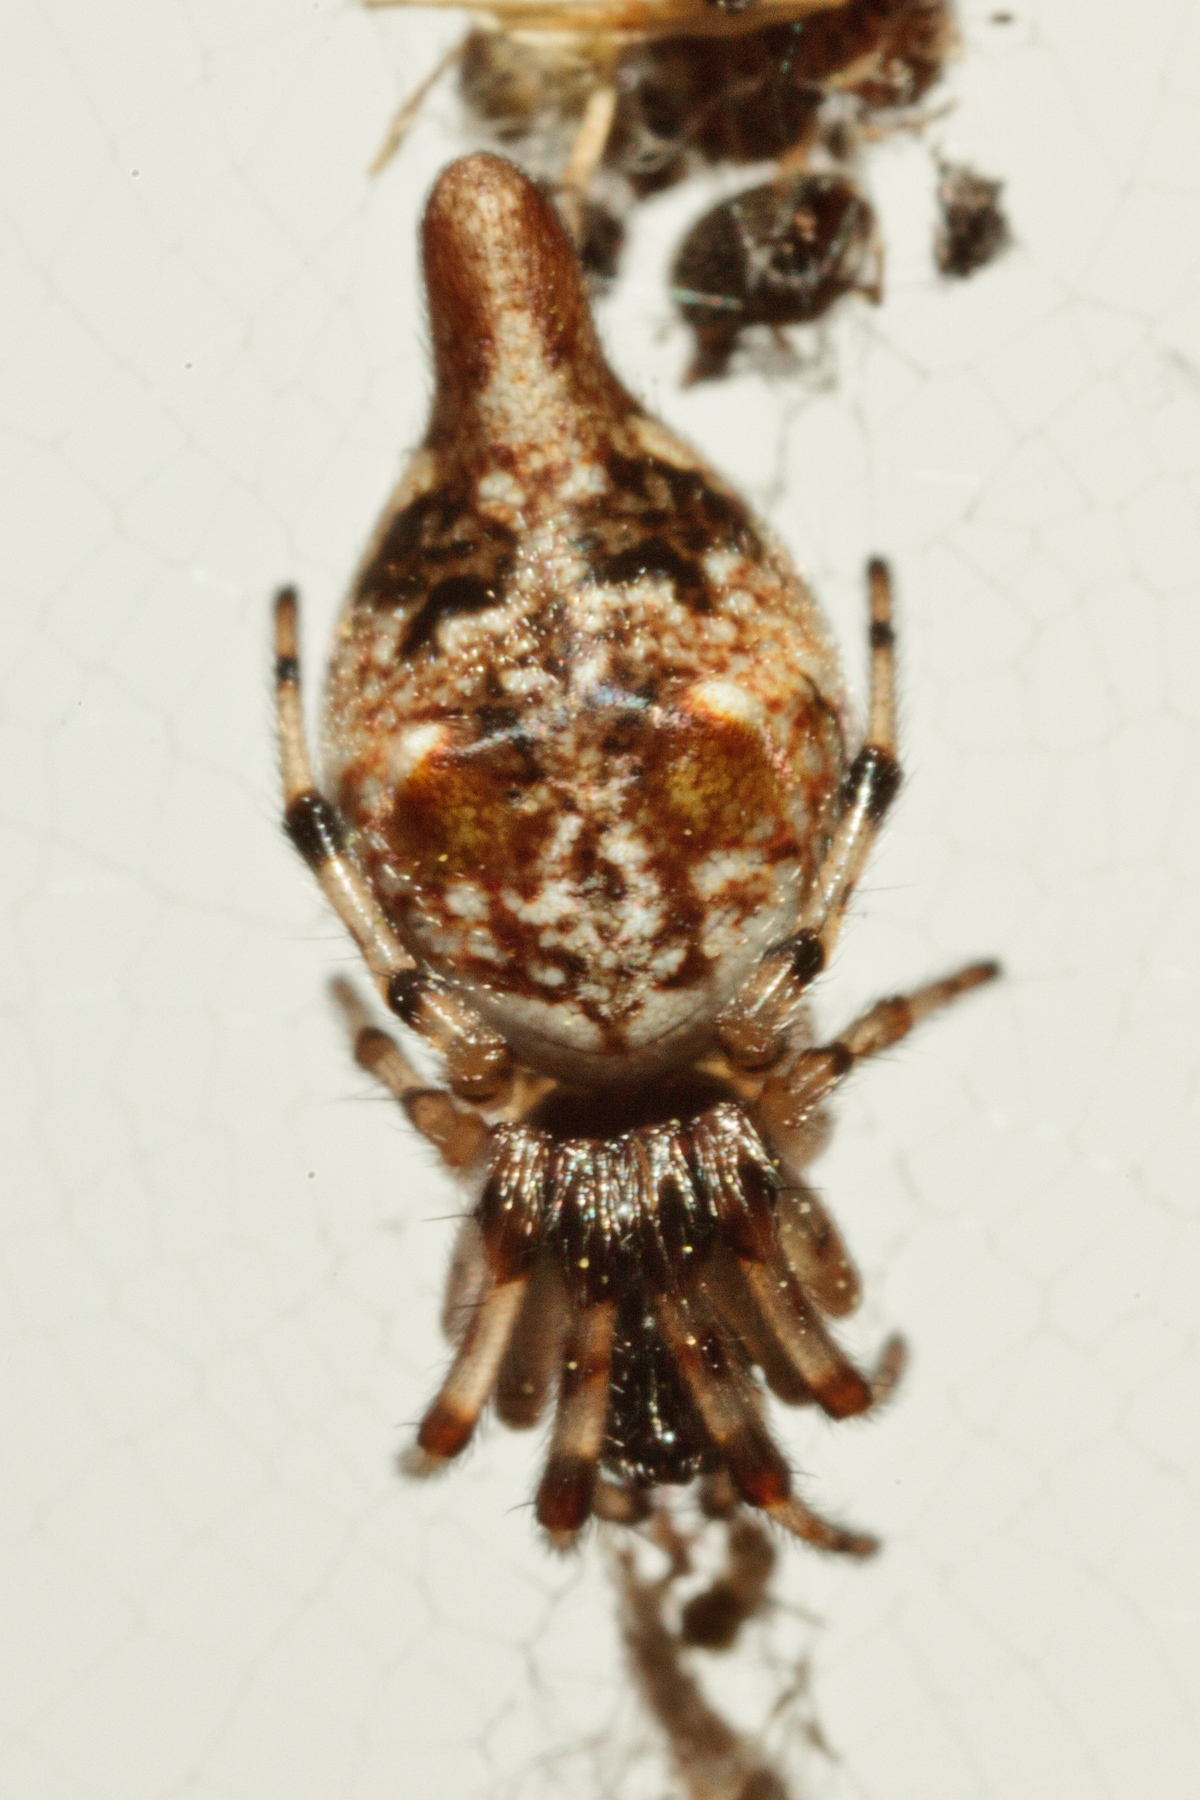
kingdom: Animalia
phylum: Arthropoda
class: Arachnida
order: Araneae
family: Araneidae
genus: Cyclosa
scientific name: Cyclosa turbinata
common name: Orb weavers
